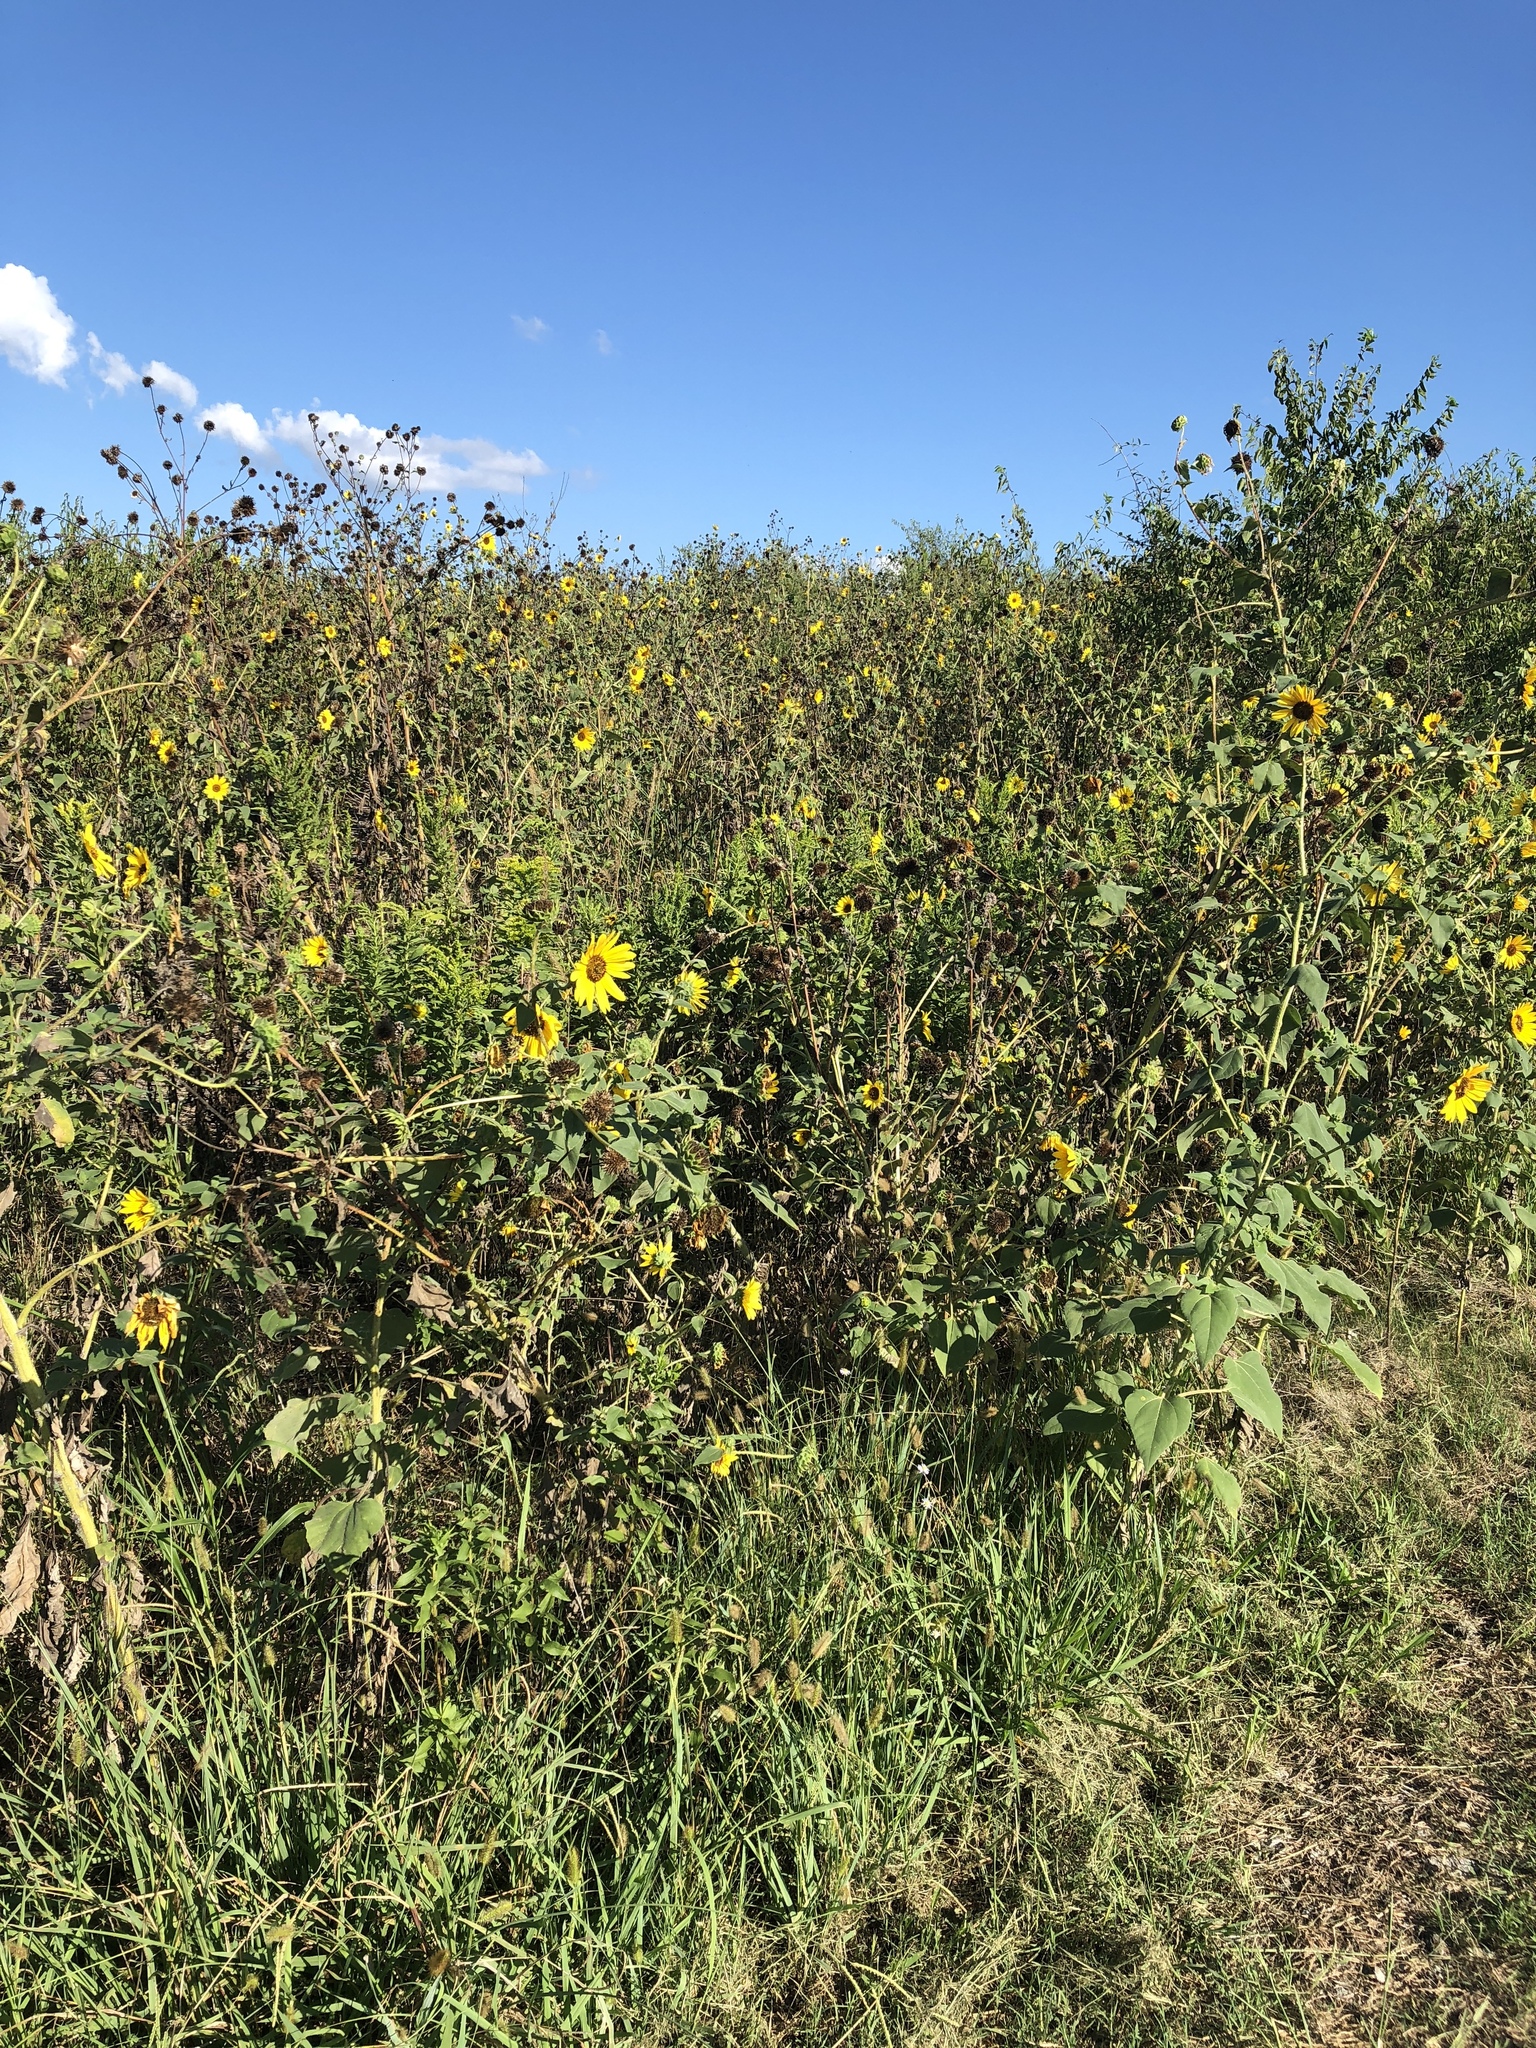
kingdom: Plantae
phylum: Tracheophyta
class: Magnoliopsida
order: Asterales
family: Asteraceae
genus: Helianthus
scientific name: Helianthus annuus
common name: Sunflower
